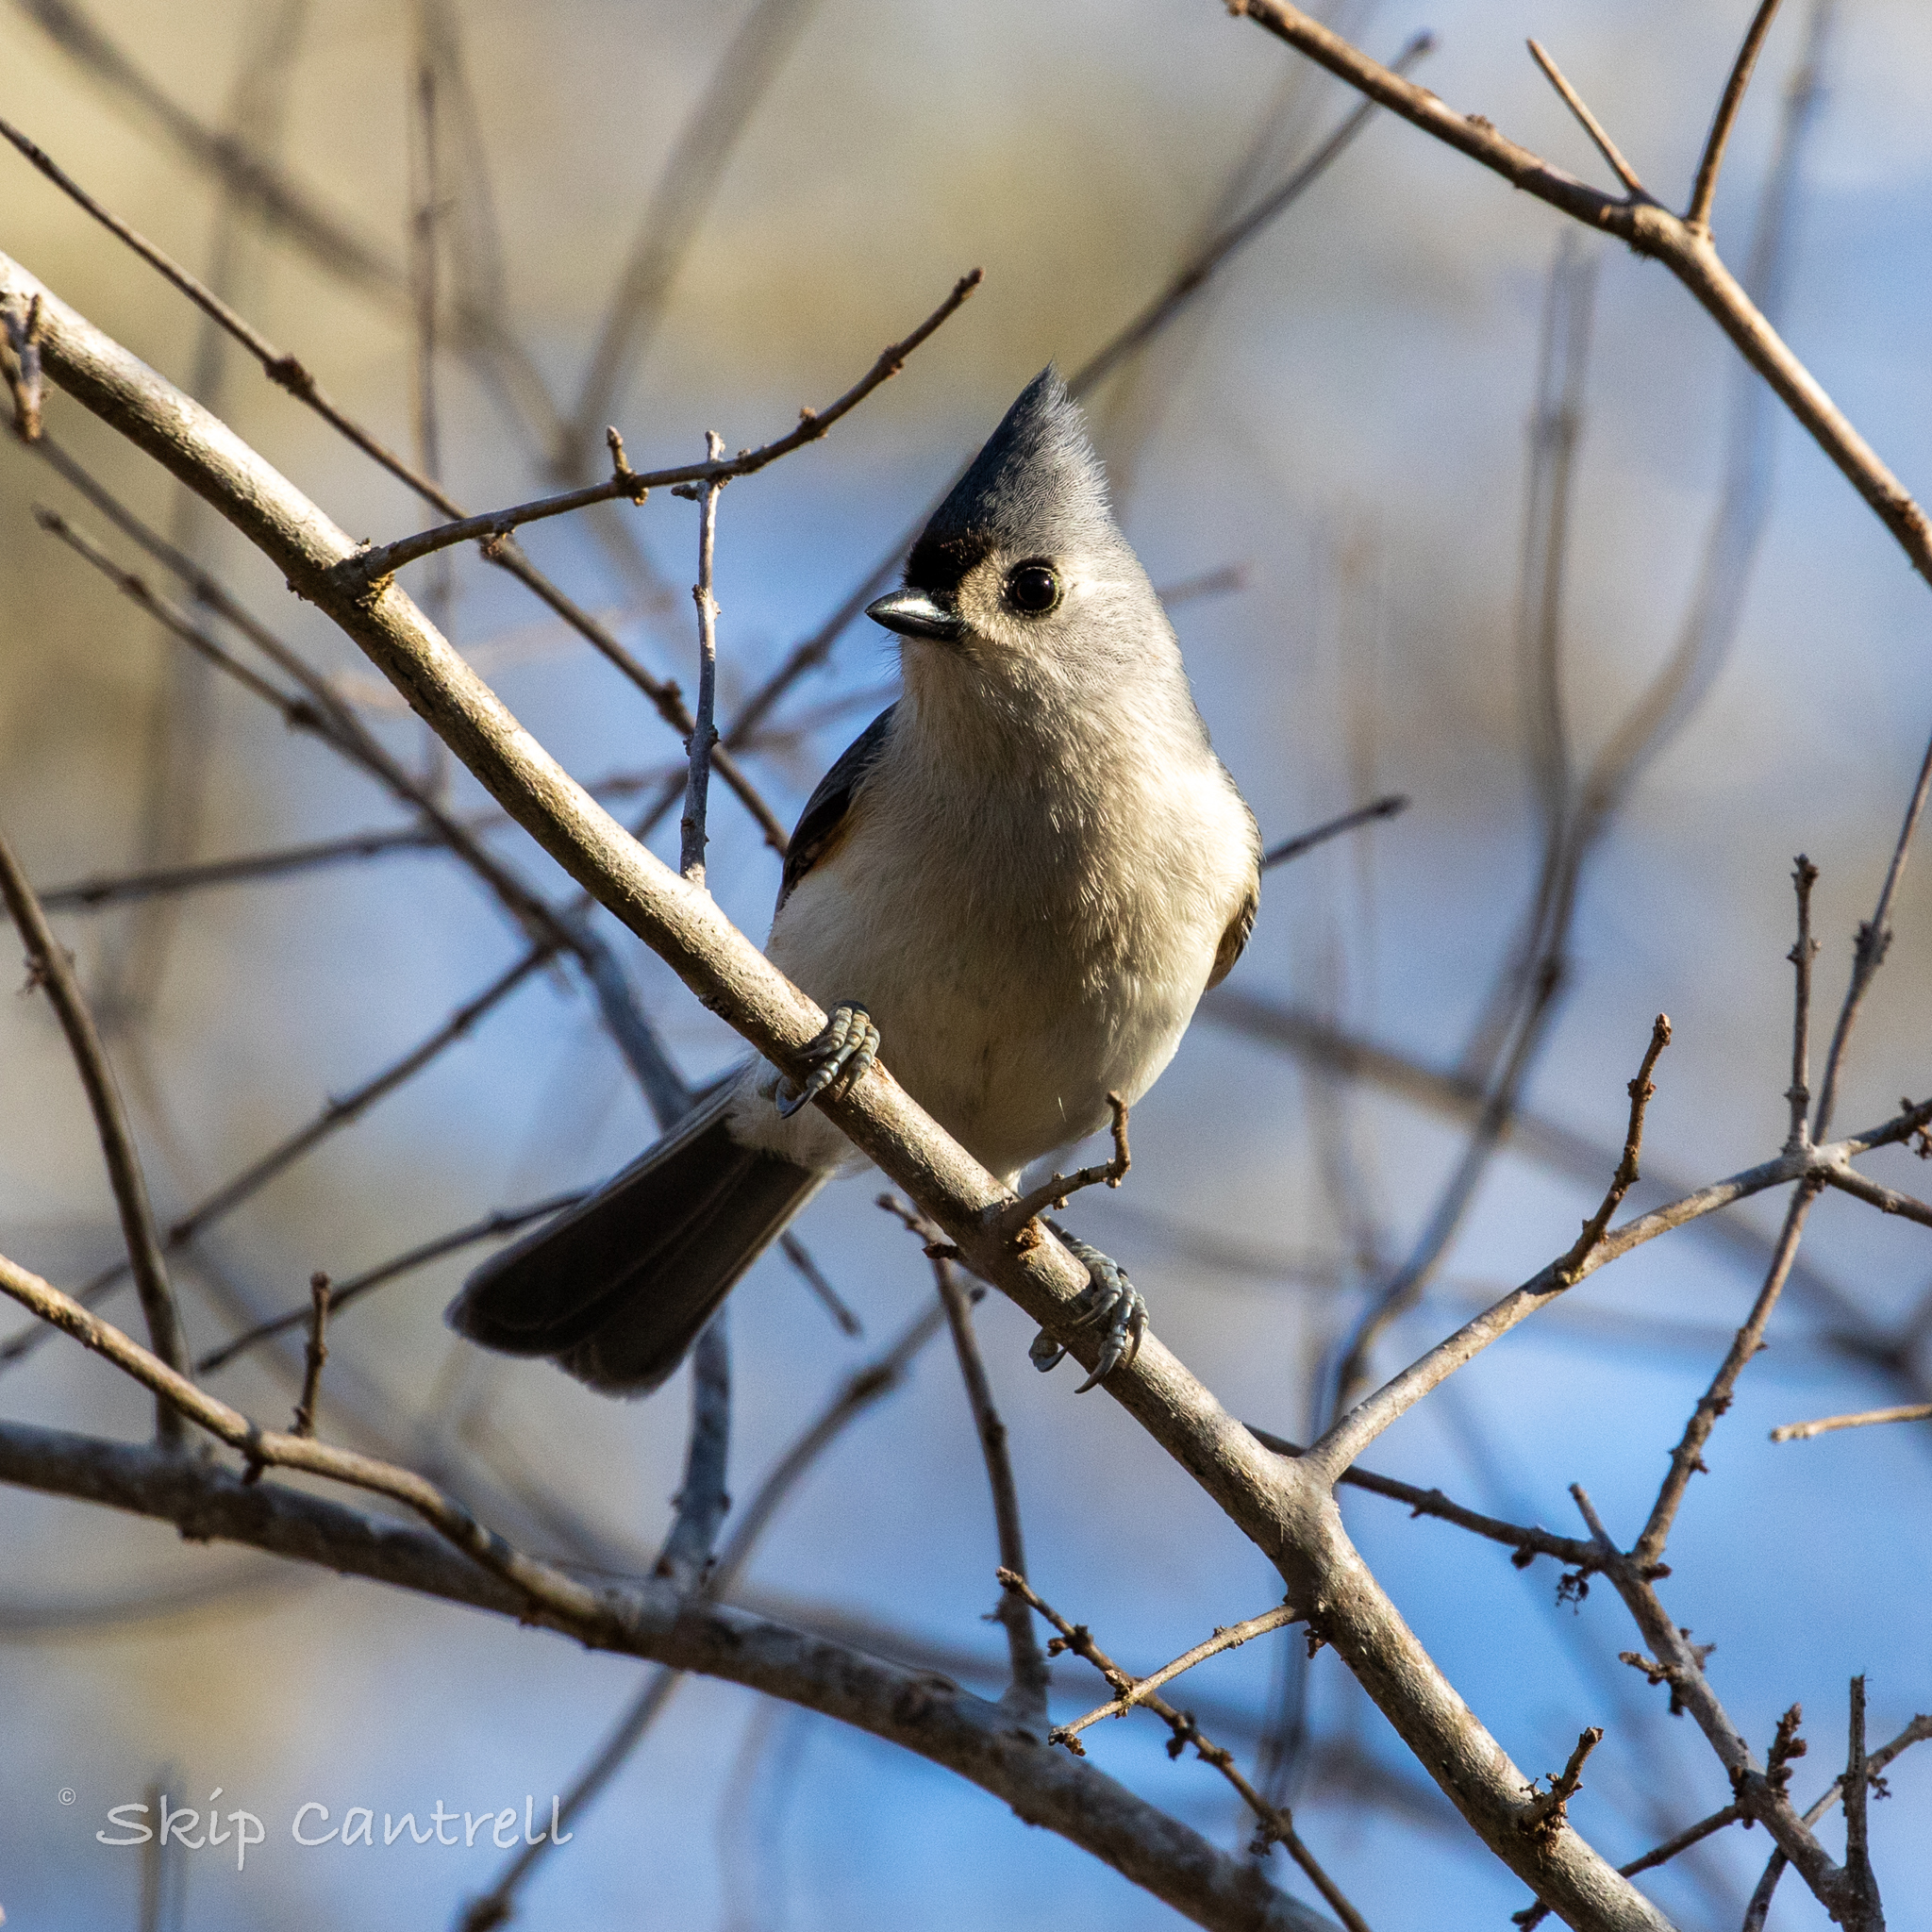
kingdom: Animalia
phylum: Chordata
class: Aves
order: Passeriformes
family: Paridae
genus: Baeolophus
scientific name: Baeolophus bicolor
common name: Tufted titmouse
